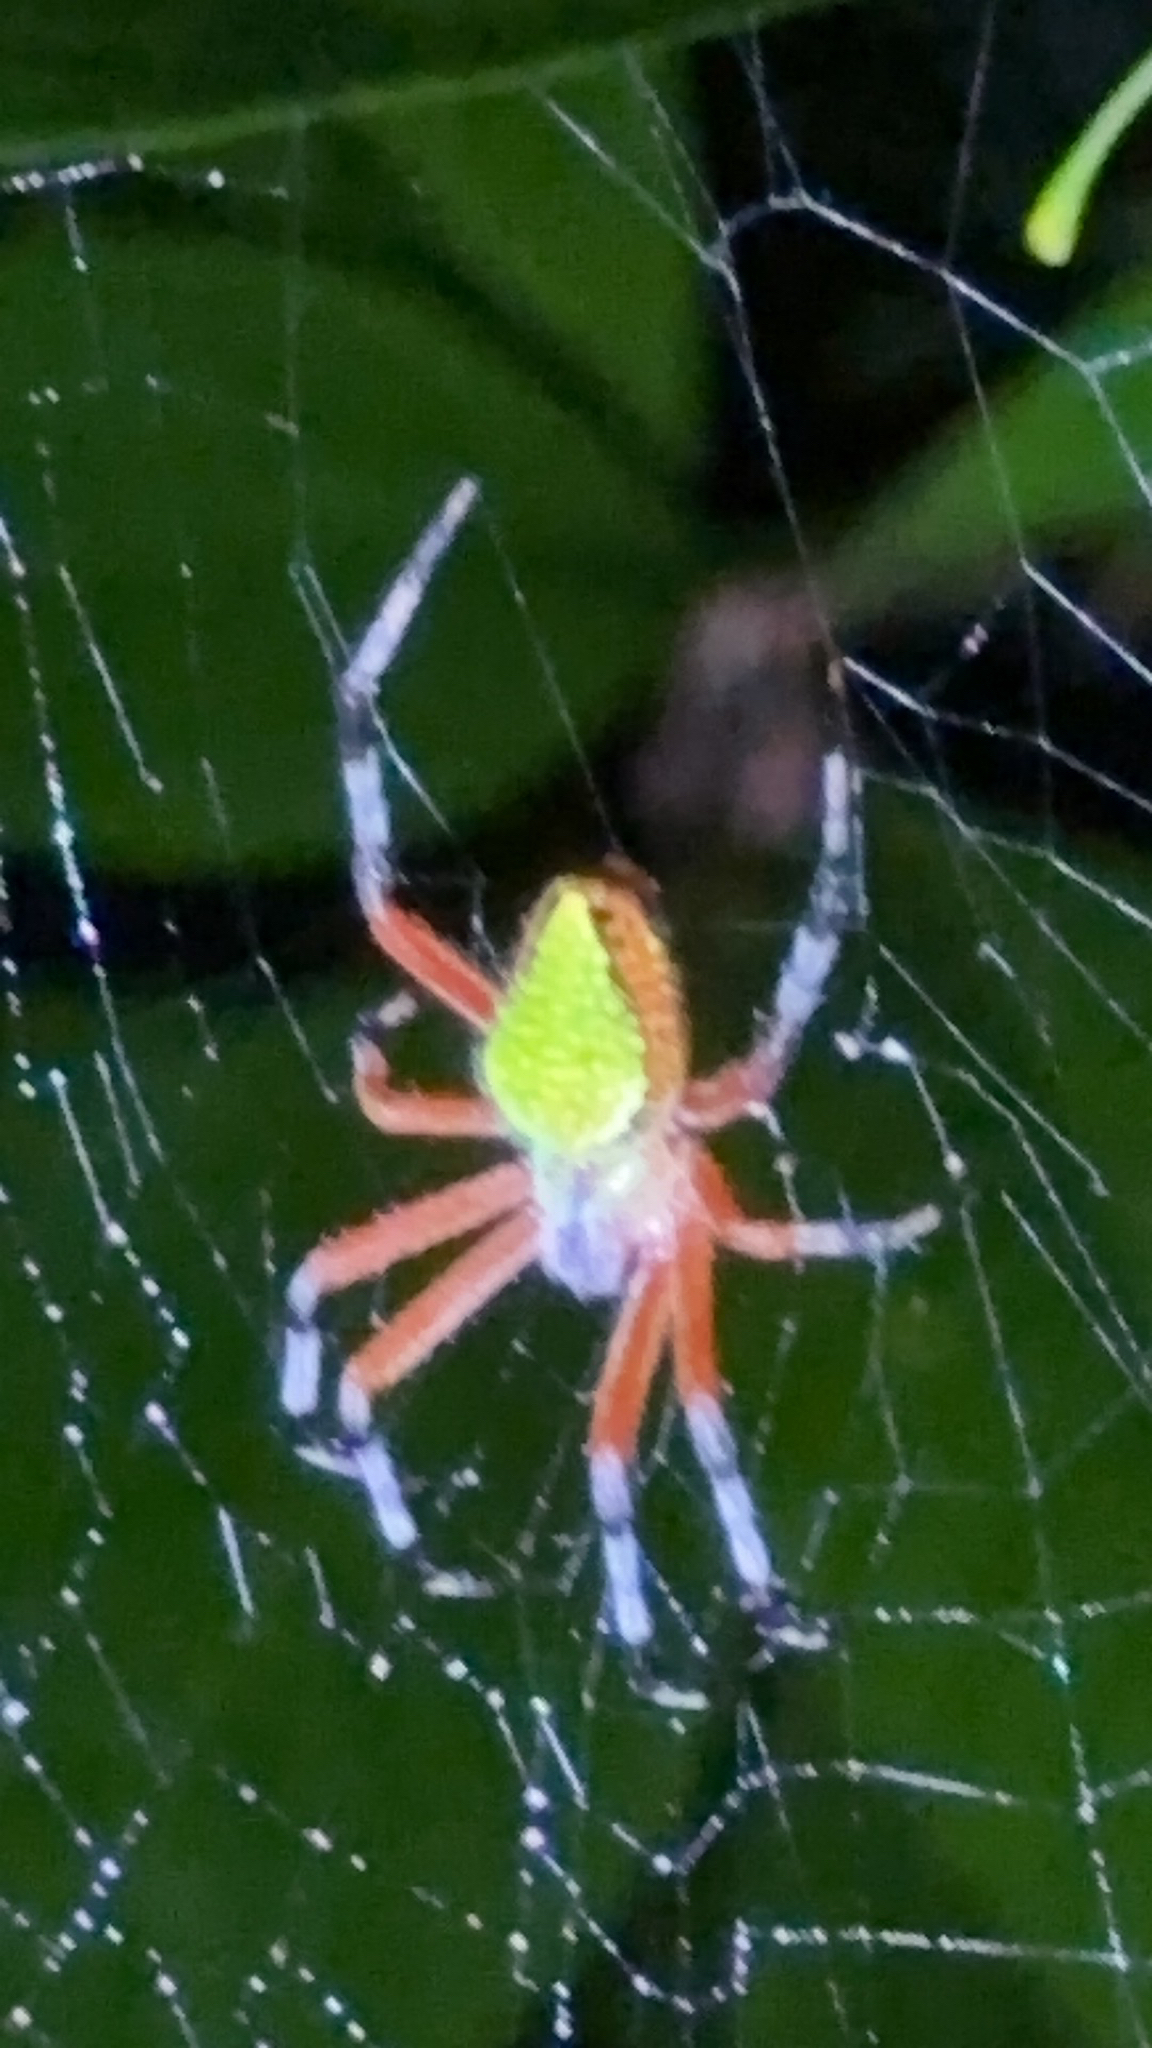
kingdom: Animalia
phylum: Arthropoda
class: Arachnida
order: Araneae
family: Araneidae
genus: Eriophora
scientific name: Eriophora nephiloides
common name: Orb weavers
